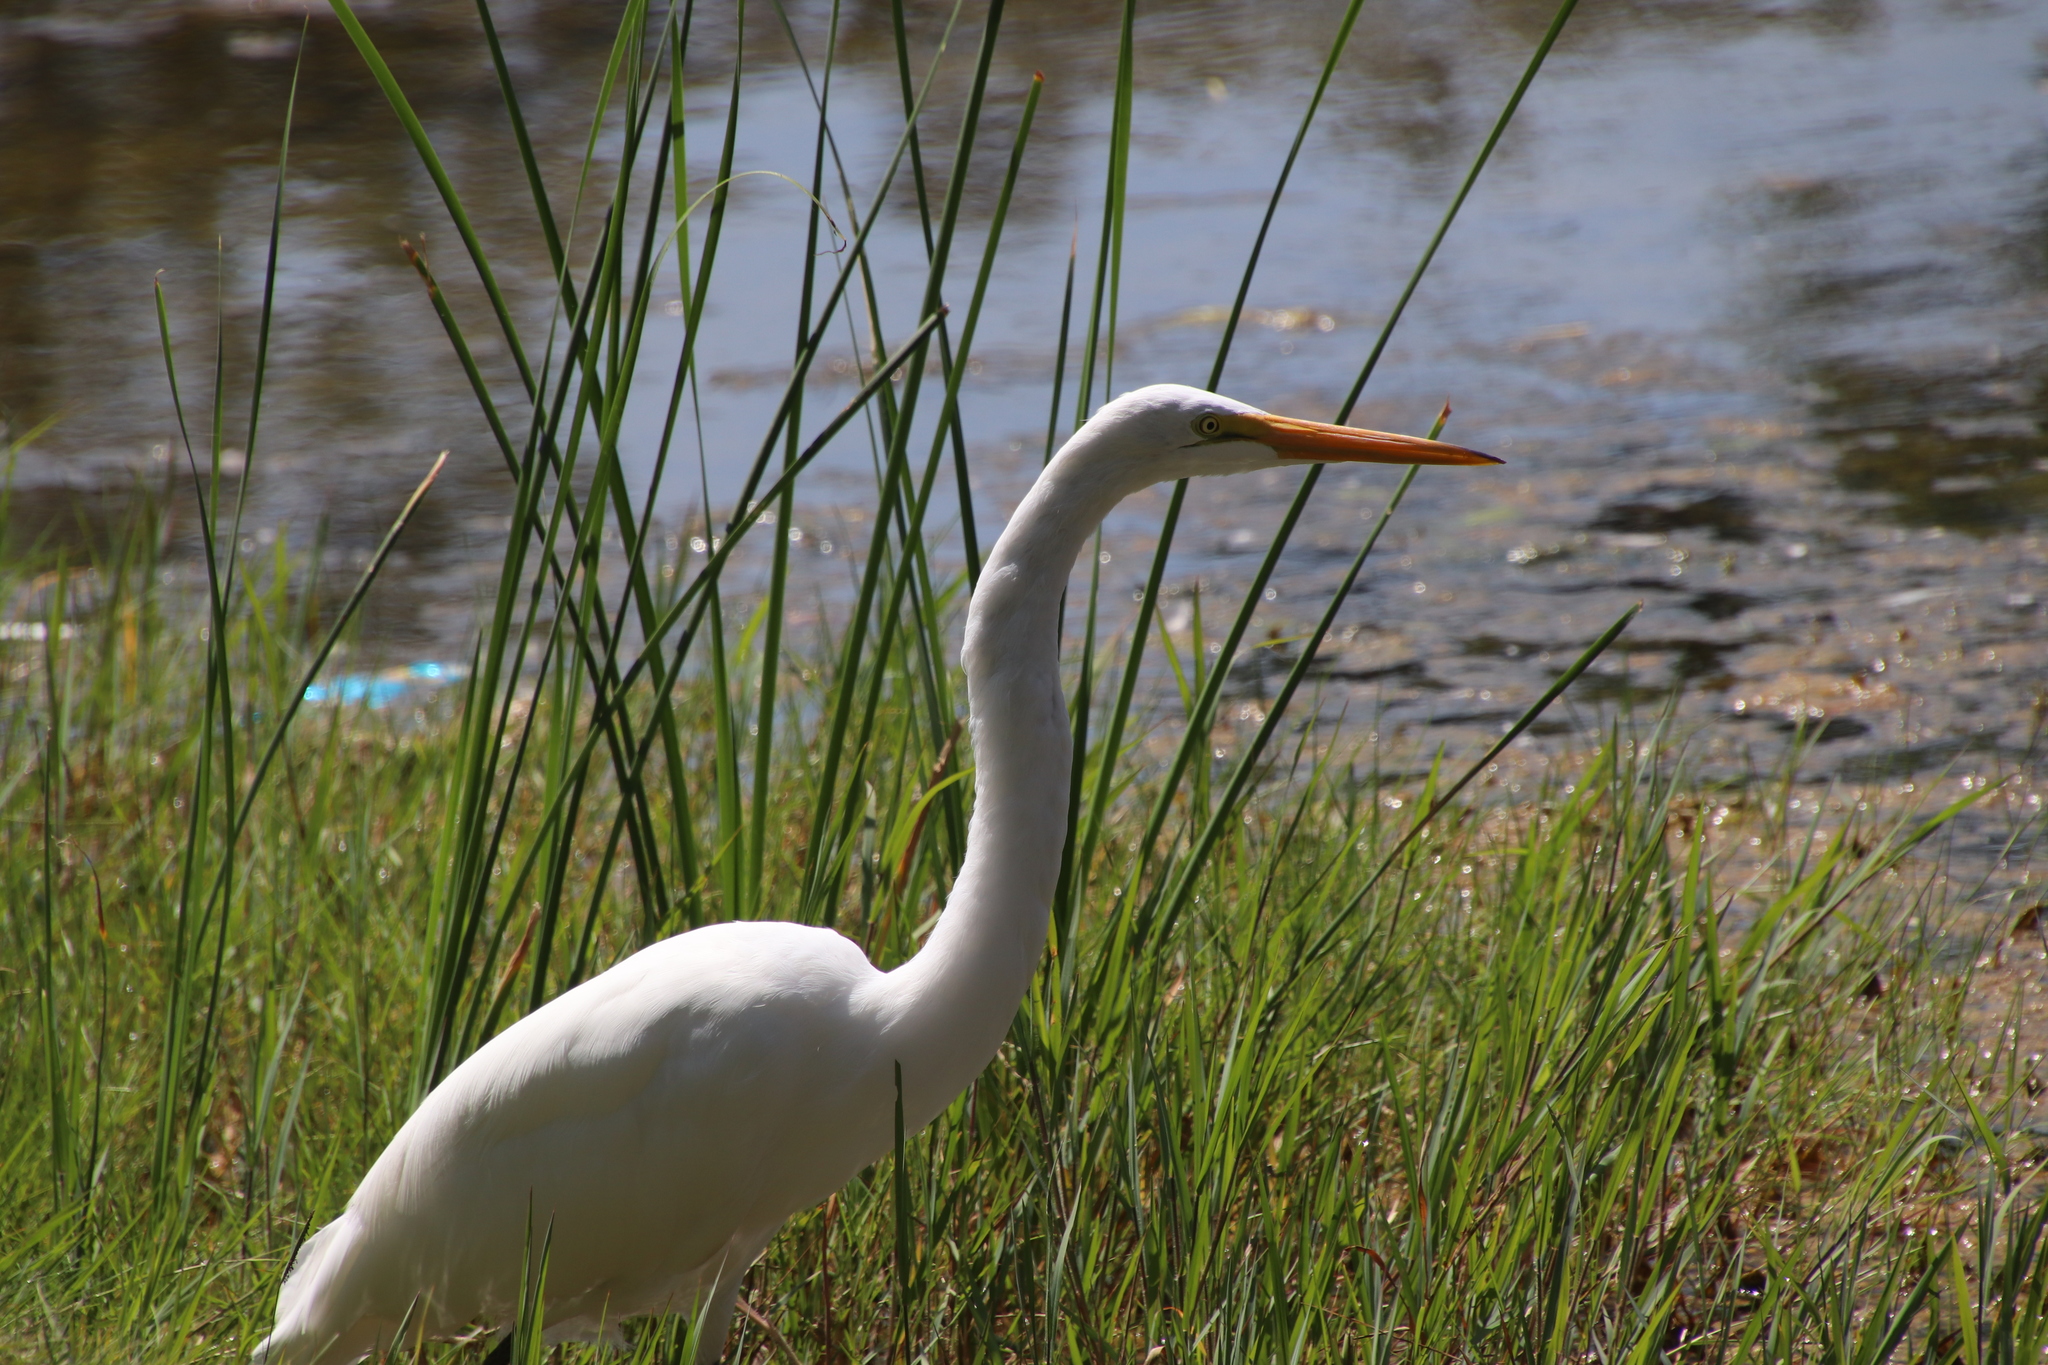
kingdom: Animalia
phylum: Chordata
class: Aves
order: Pelecaniformes
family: Ardeidae
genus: Ardea
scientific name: Ardea alba
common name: Great egret
